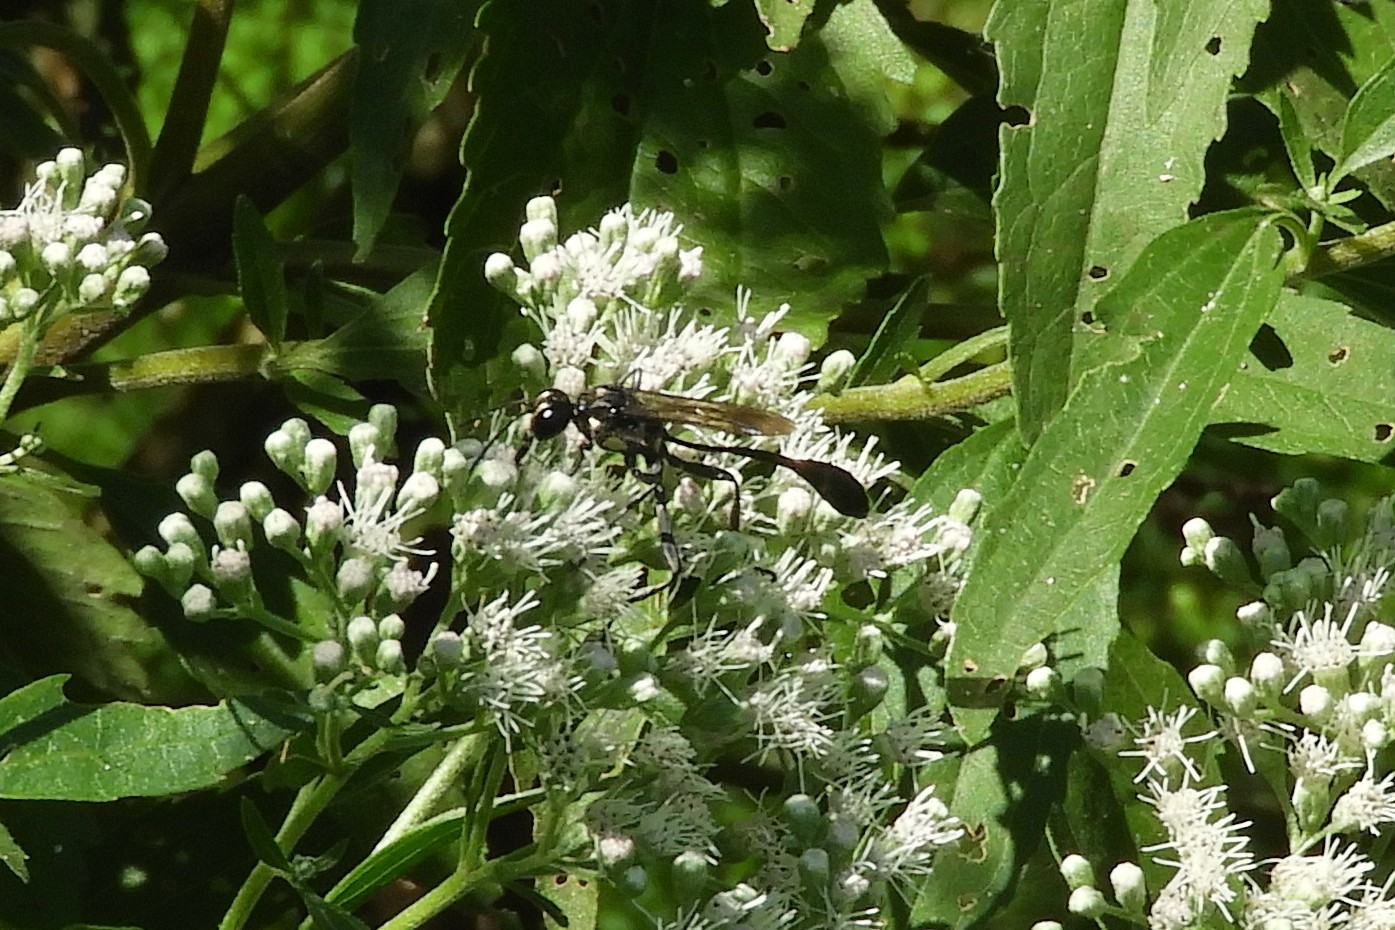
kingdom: Animalia
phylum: Arthropoda
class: Insecta
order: Hymenoptera
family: Sphecidae
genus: Eremnophila
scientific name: Eremnophila aureonotata
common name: Gold-marked thread-waisted wasp
